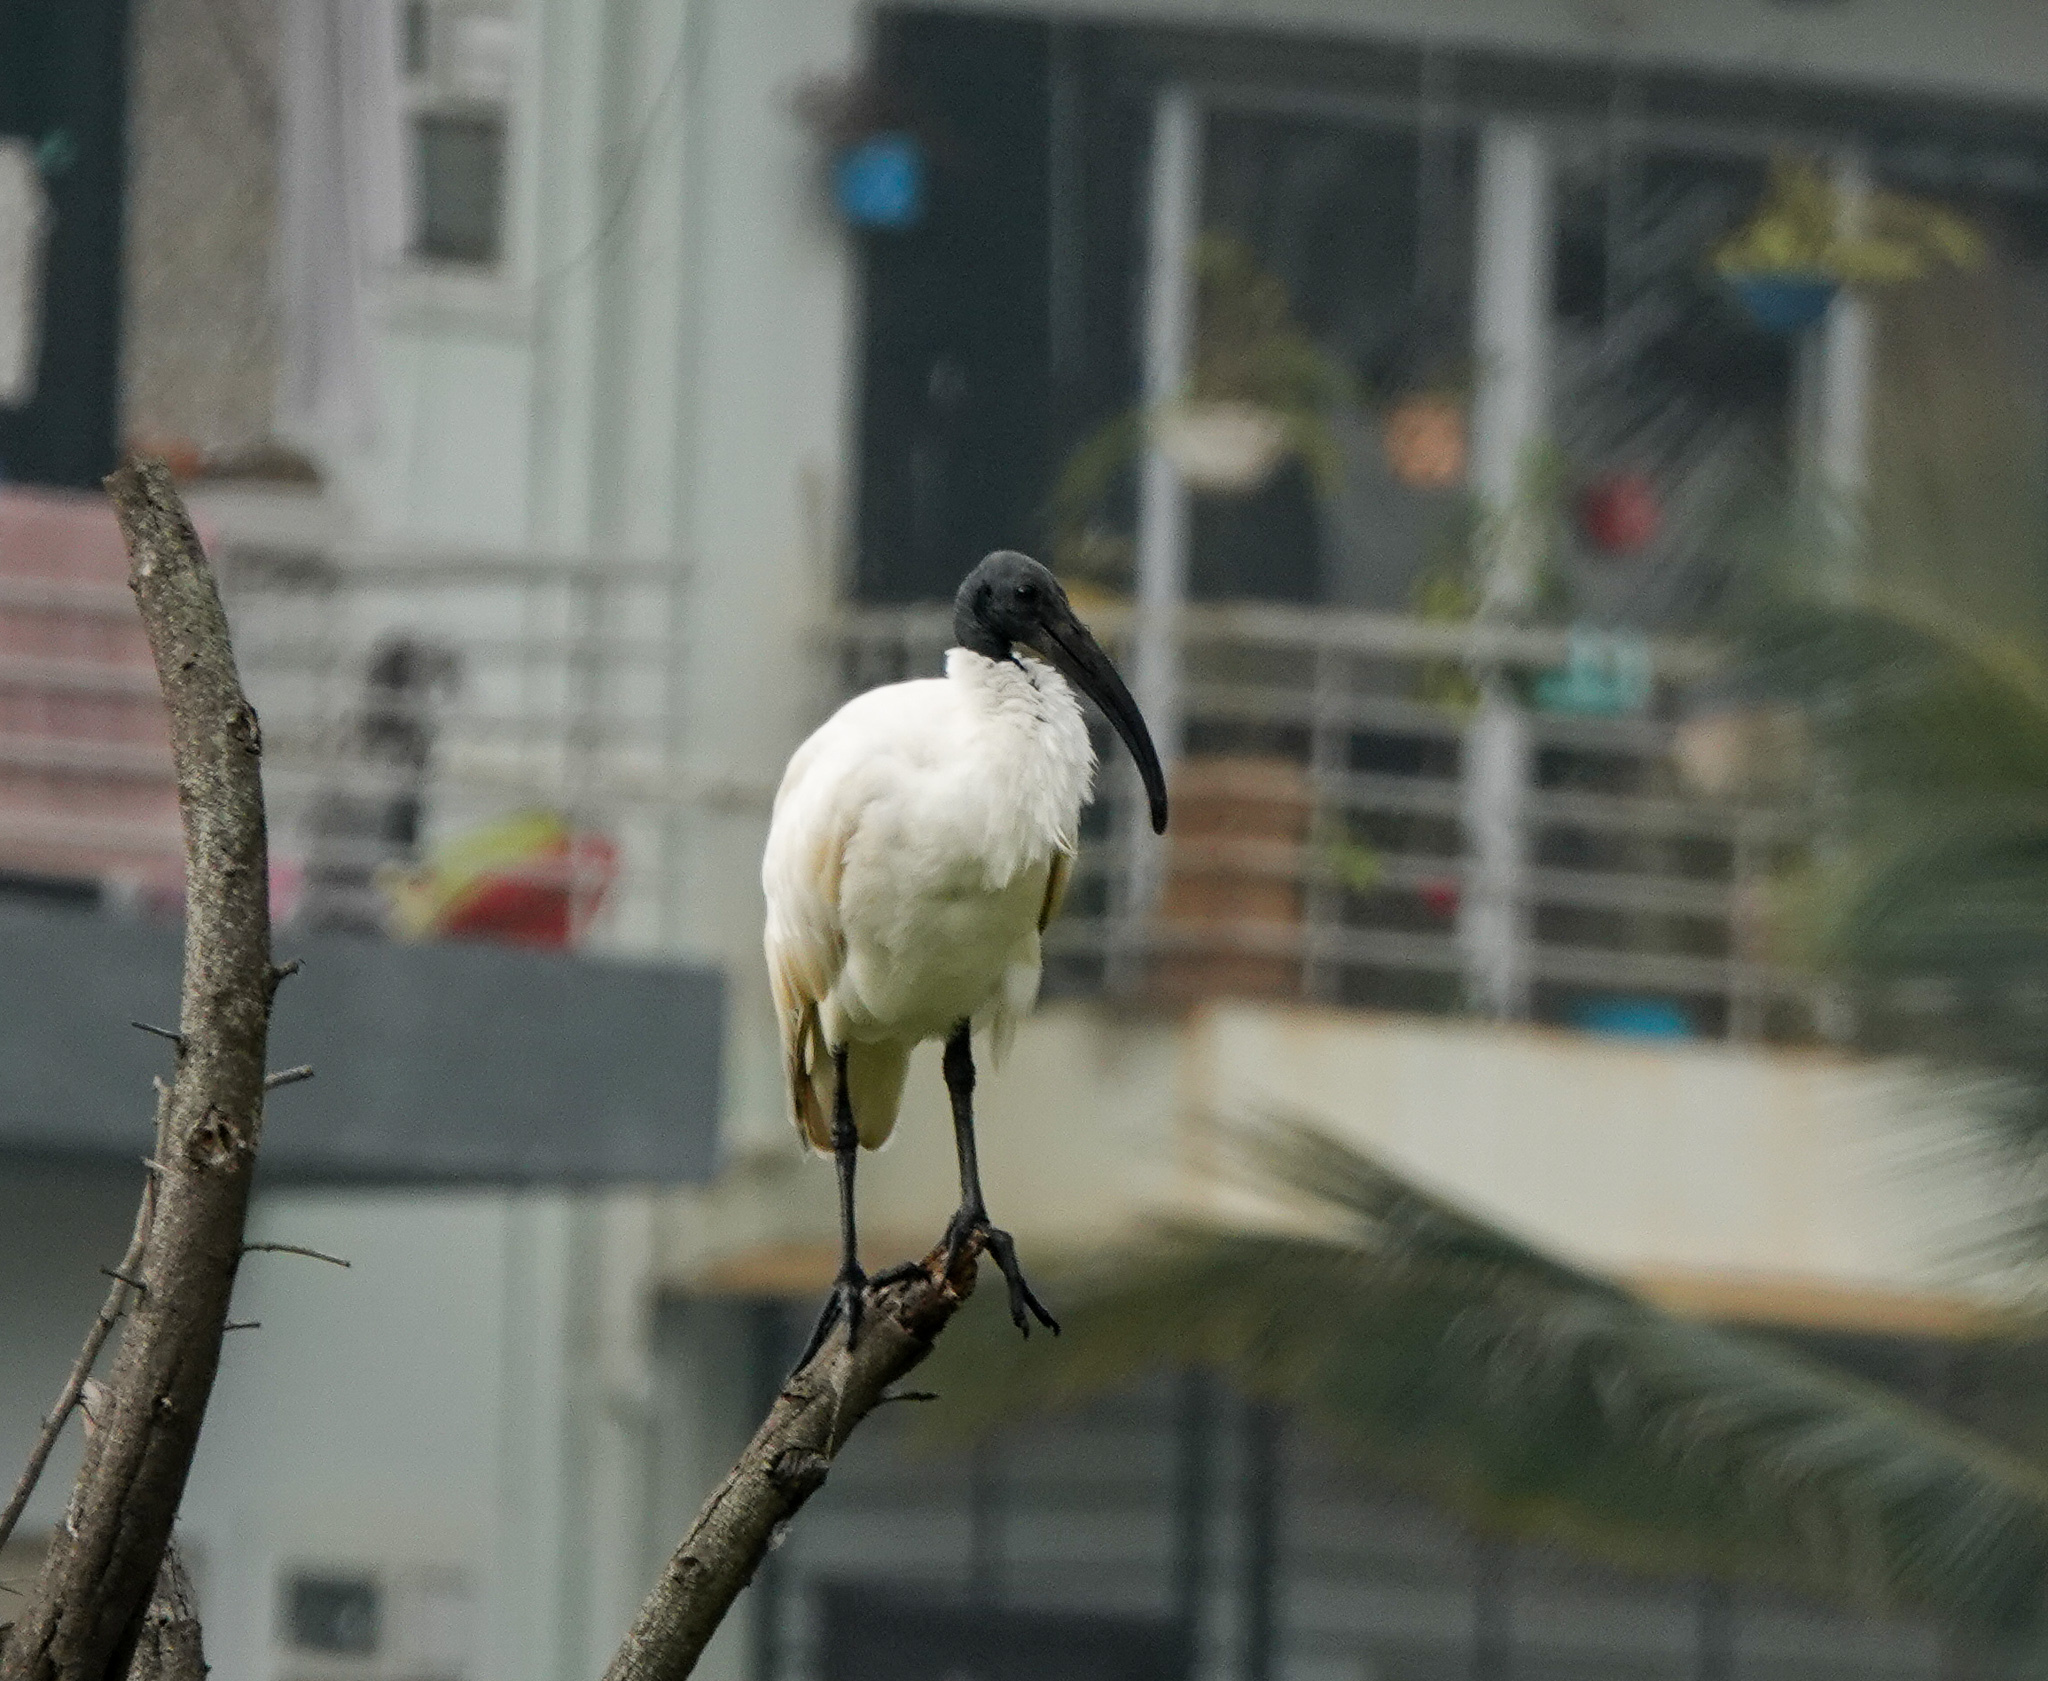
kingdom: Animalia
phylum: Chordata
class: Aves
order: Pelecaniformes
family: Threskiornithidae
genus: Threskiornis
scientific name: Threskiornis melanocephalus
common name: Black-headed ibis
